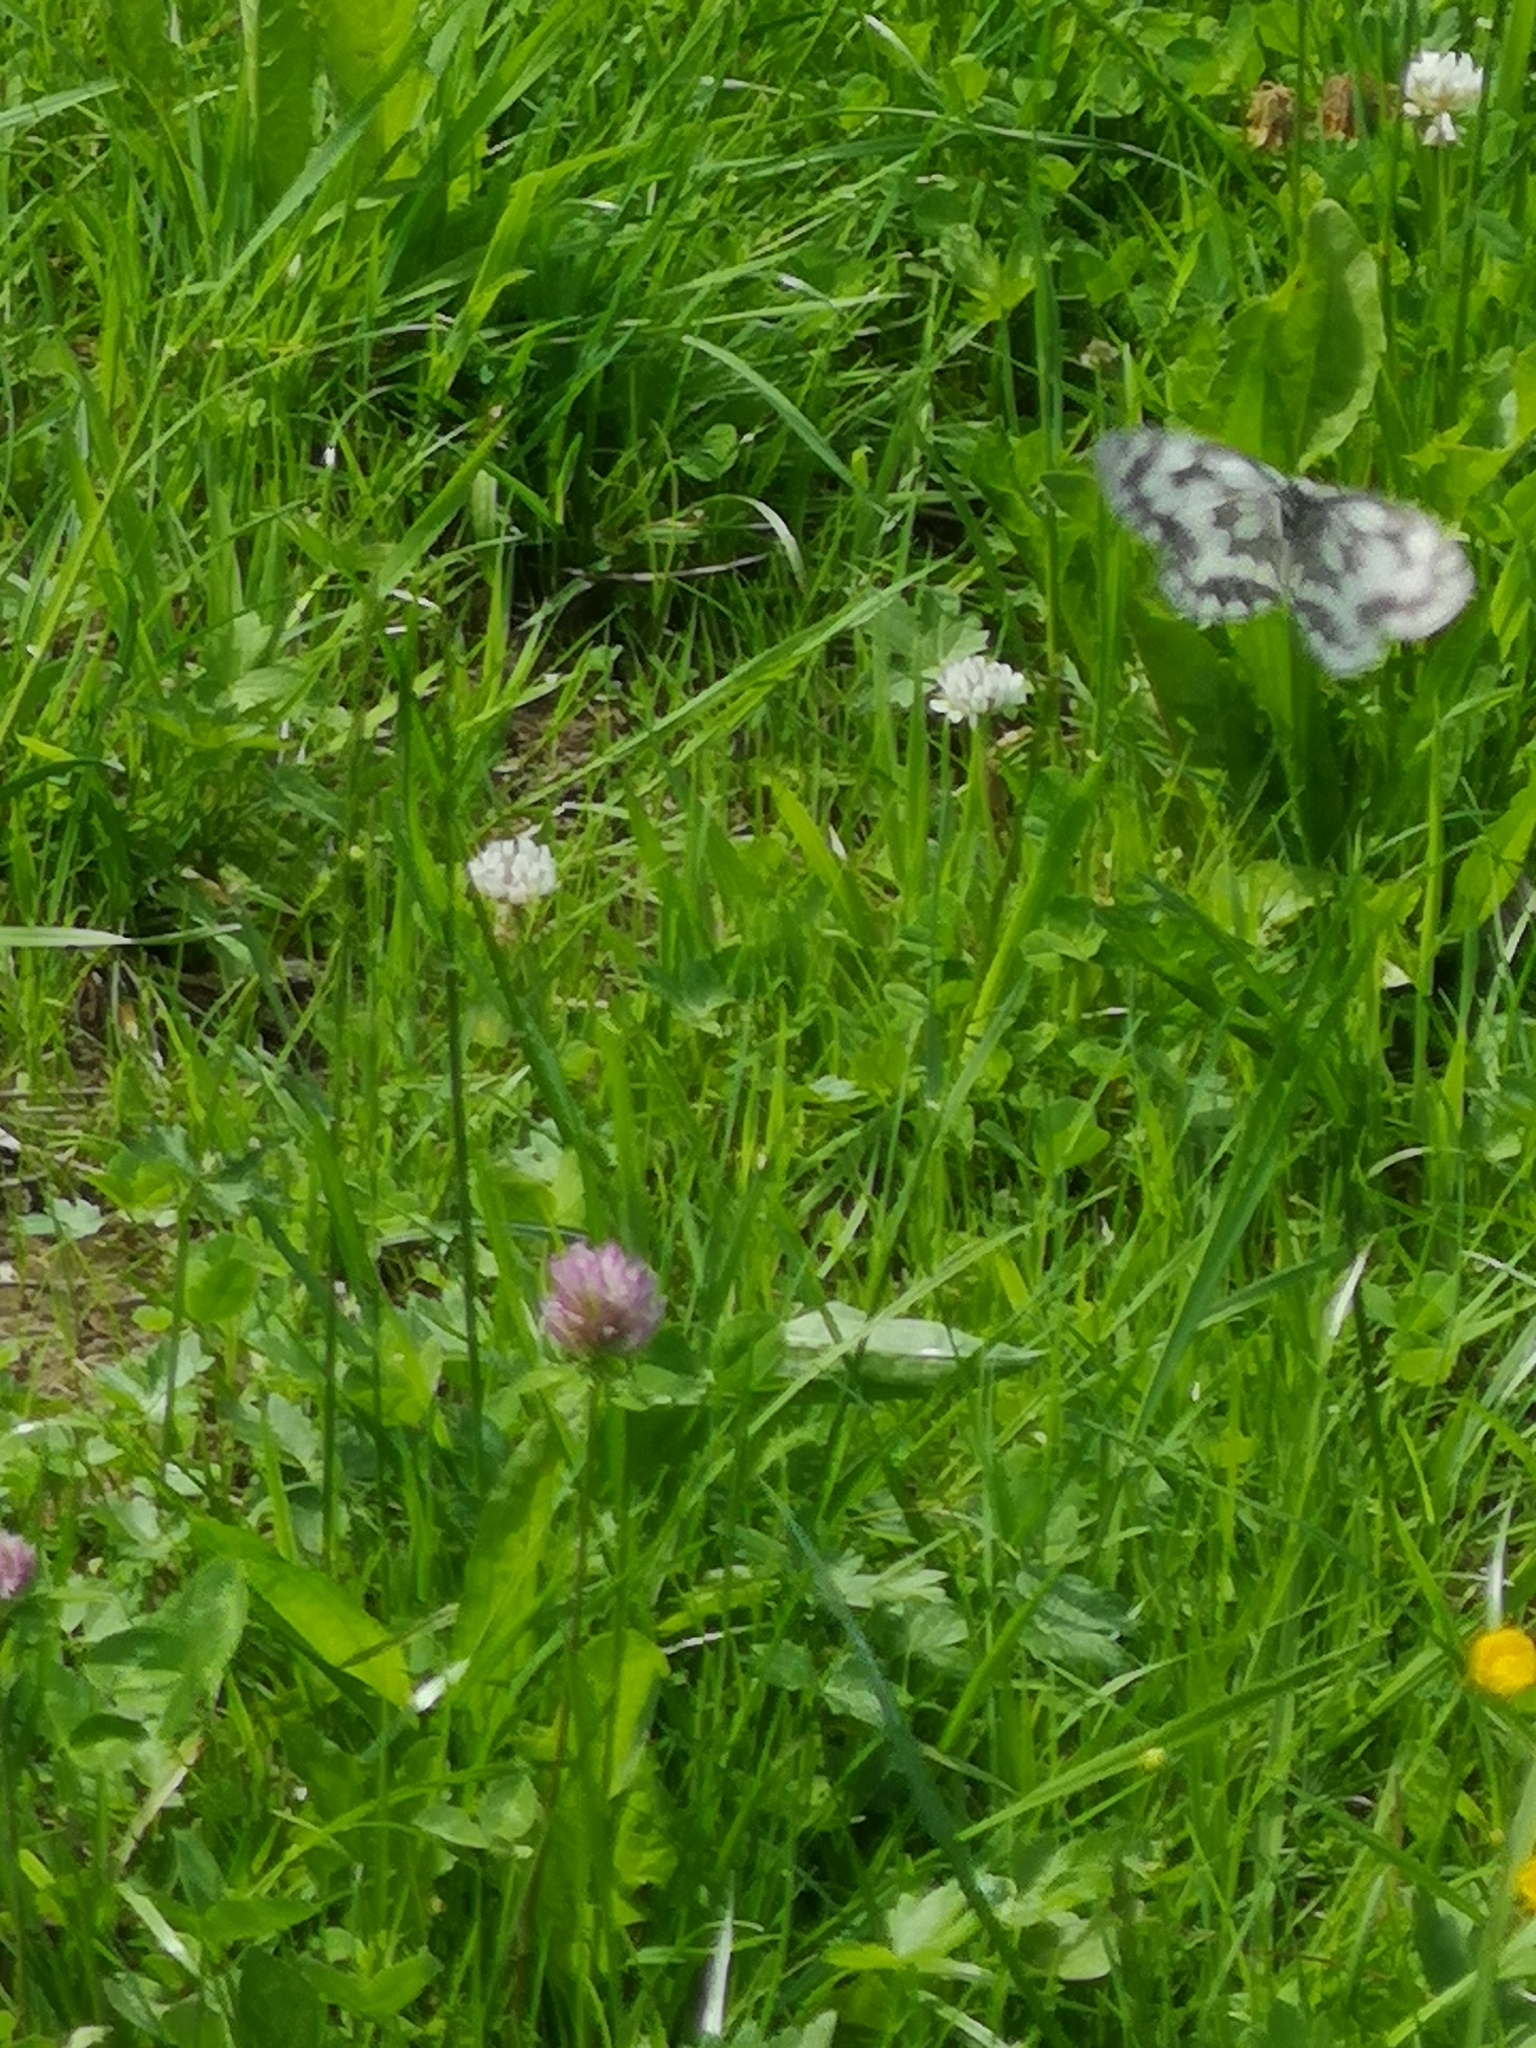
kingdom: Animalia
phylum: Arthropoda
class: Insecta
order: Lepidoptera
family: Nymphalidae
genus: Melanargia
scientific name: Melanargia galathea
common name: Marbled white
